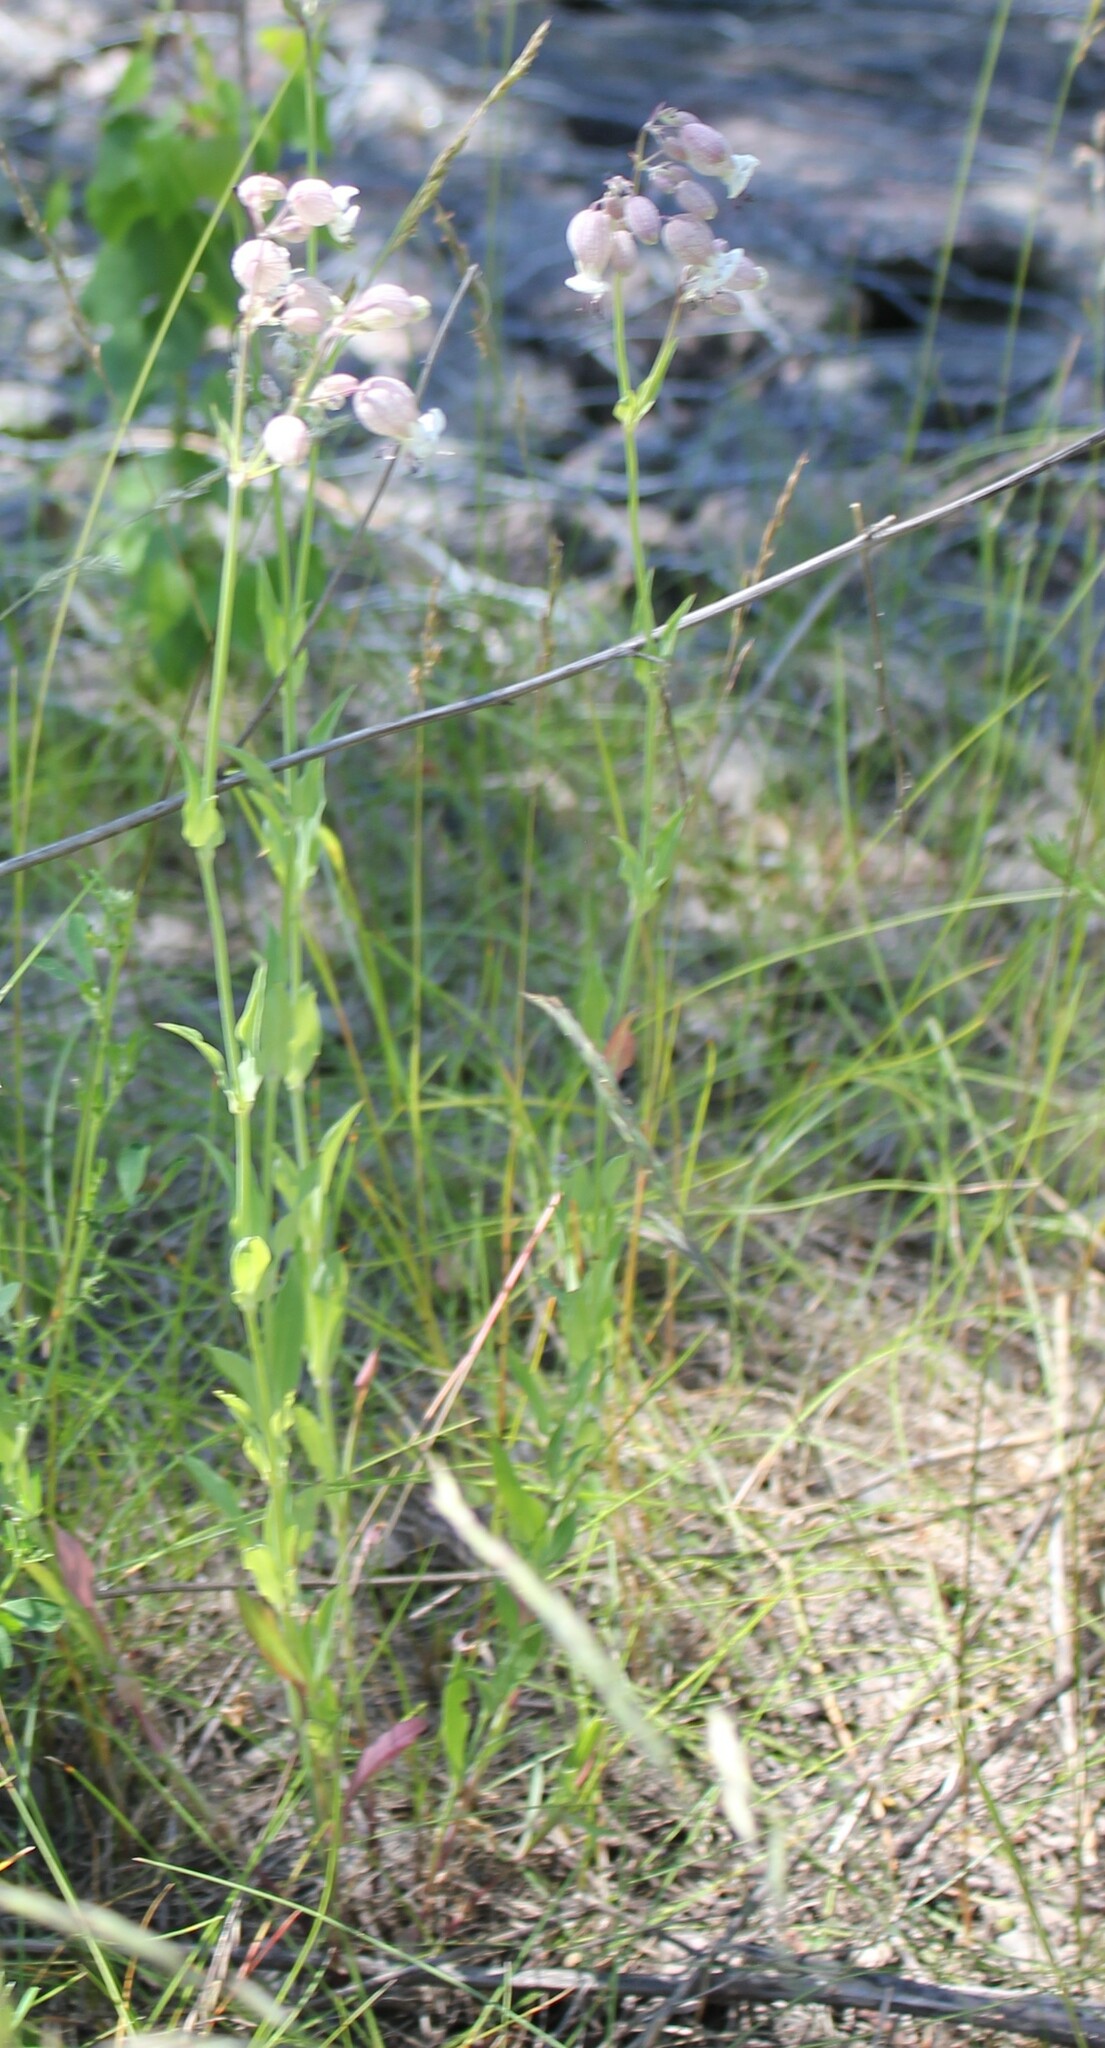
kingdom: Plantae
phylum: Tracheophyta
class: Magnoliopsida
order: Caryophyllales
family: Caryophyllaceae
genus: Silene
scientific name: Silene vulgaris
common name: Bladder campion
